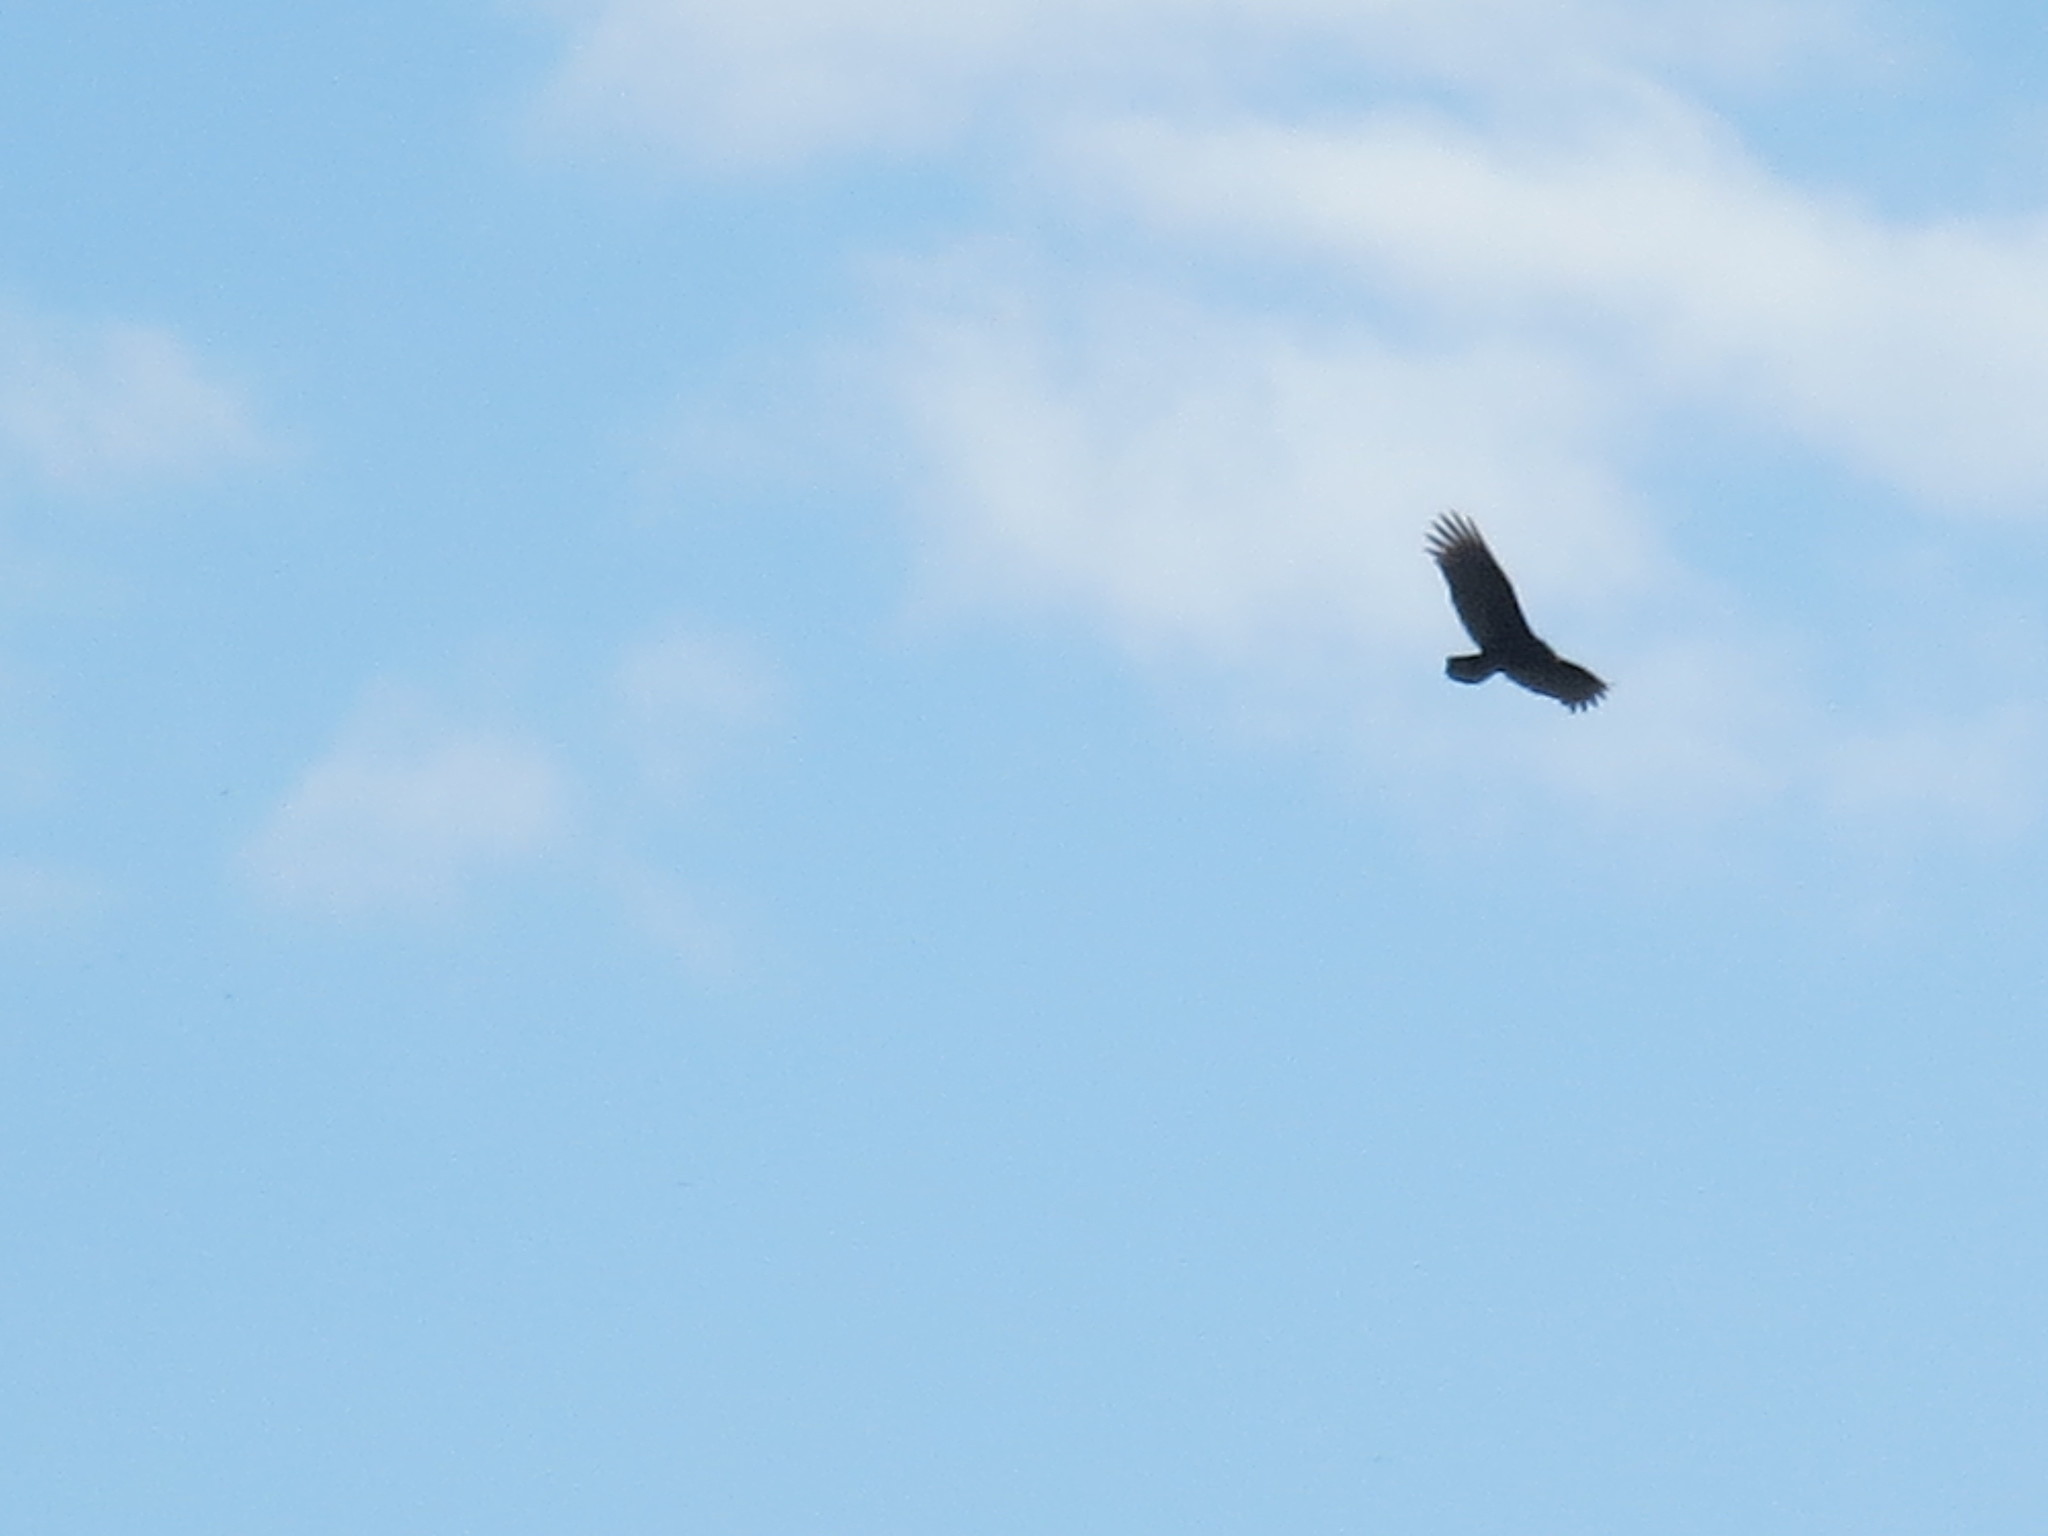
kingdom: Animalia
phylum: Chordata
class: Aves
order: Accipitriformes
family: Cathartidae
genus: Cathartes
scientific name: Cathartes aura
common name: Turkey vulture
